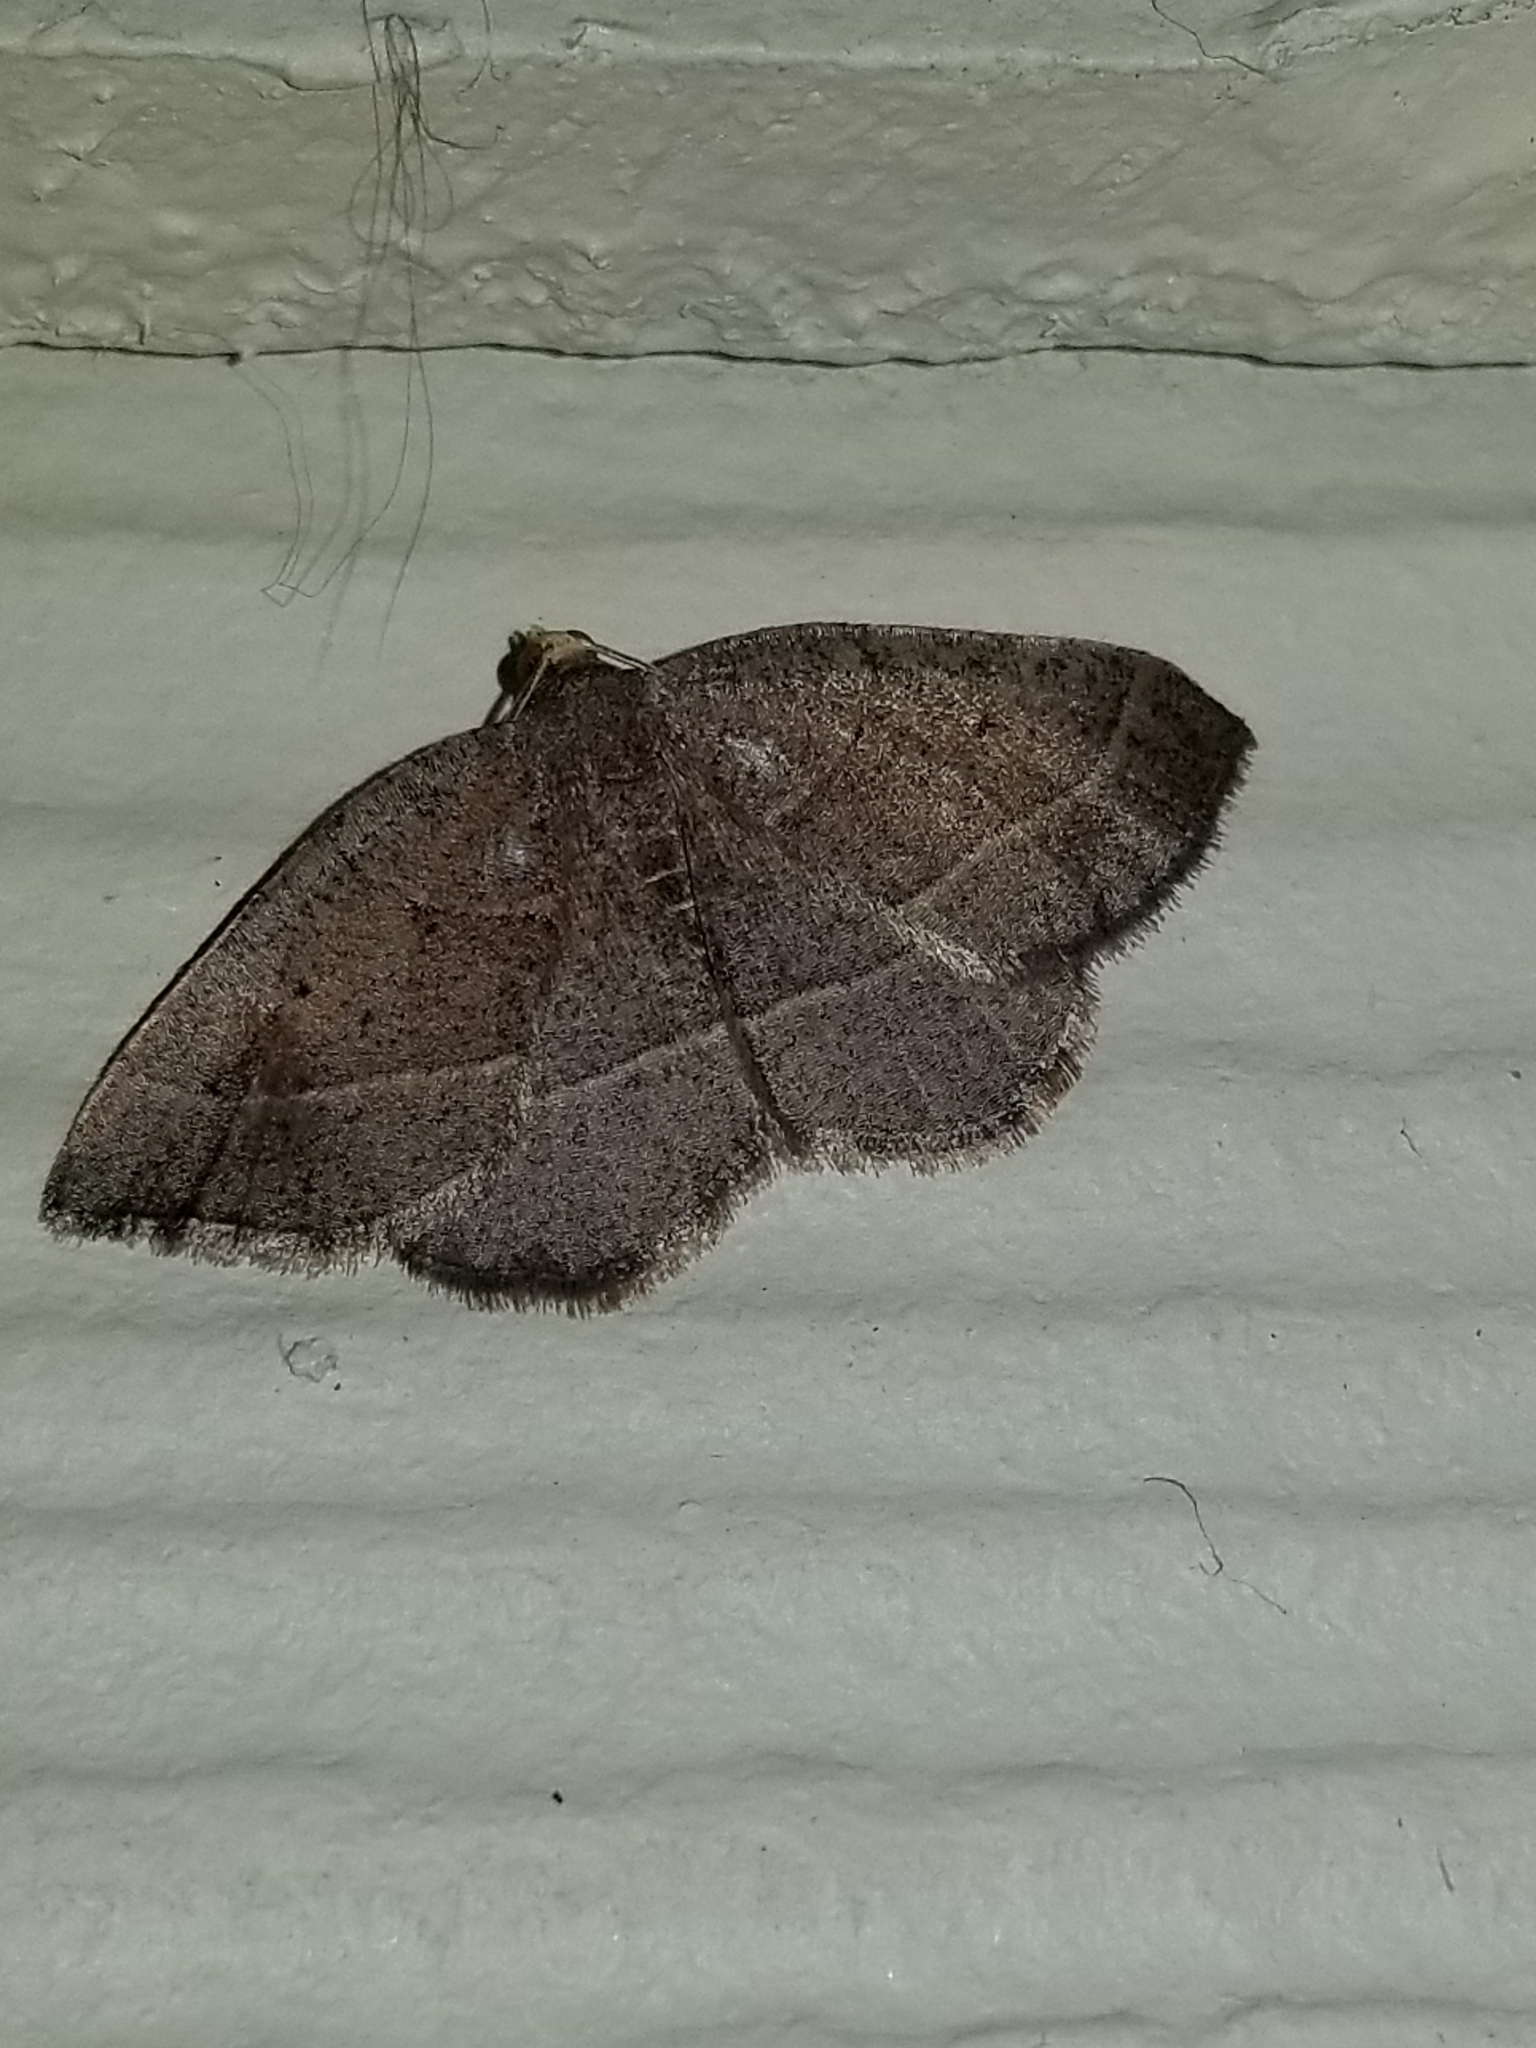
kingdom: Animalia
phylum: Arthropoda
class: Insecta
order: Lepidoptera
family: Geometridae
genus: Episemasia
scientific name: Episemasia cervinaria
